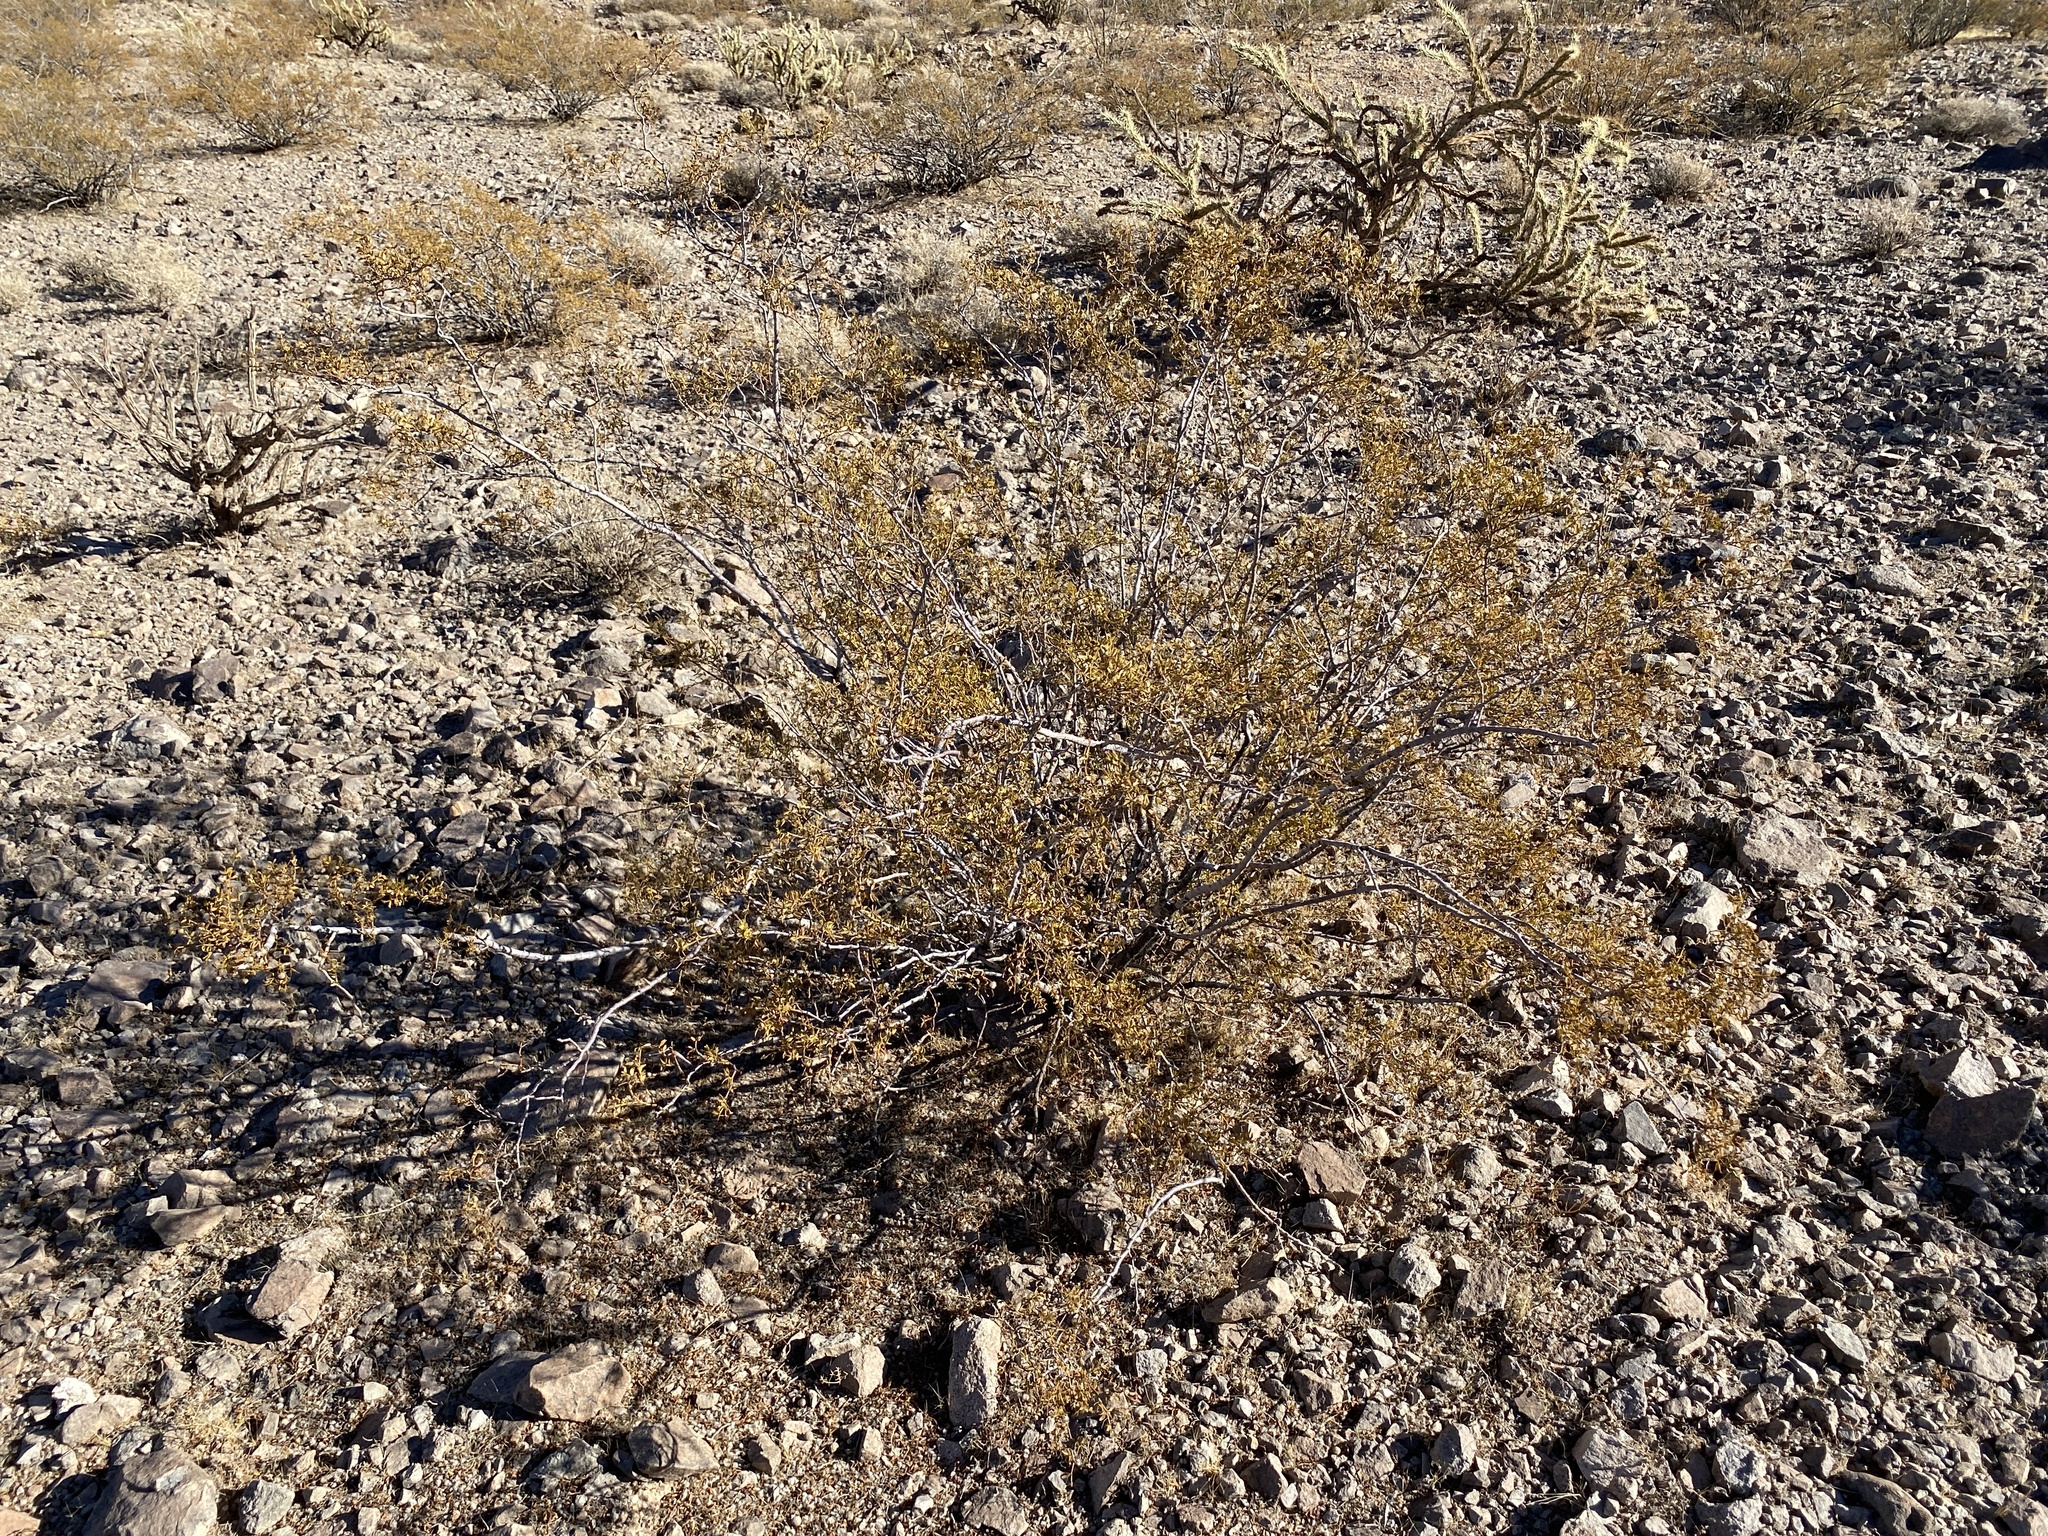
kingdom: Plantae
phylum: Tracheophyta
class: Magnoliopsida
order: Zygophyllales
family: Zygophyllaceae
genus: Larrea
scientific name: Larrea tridentata
